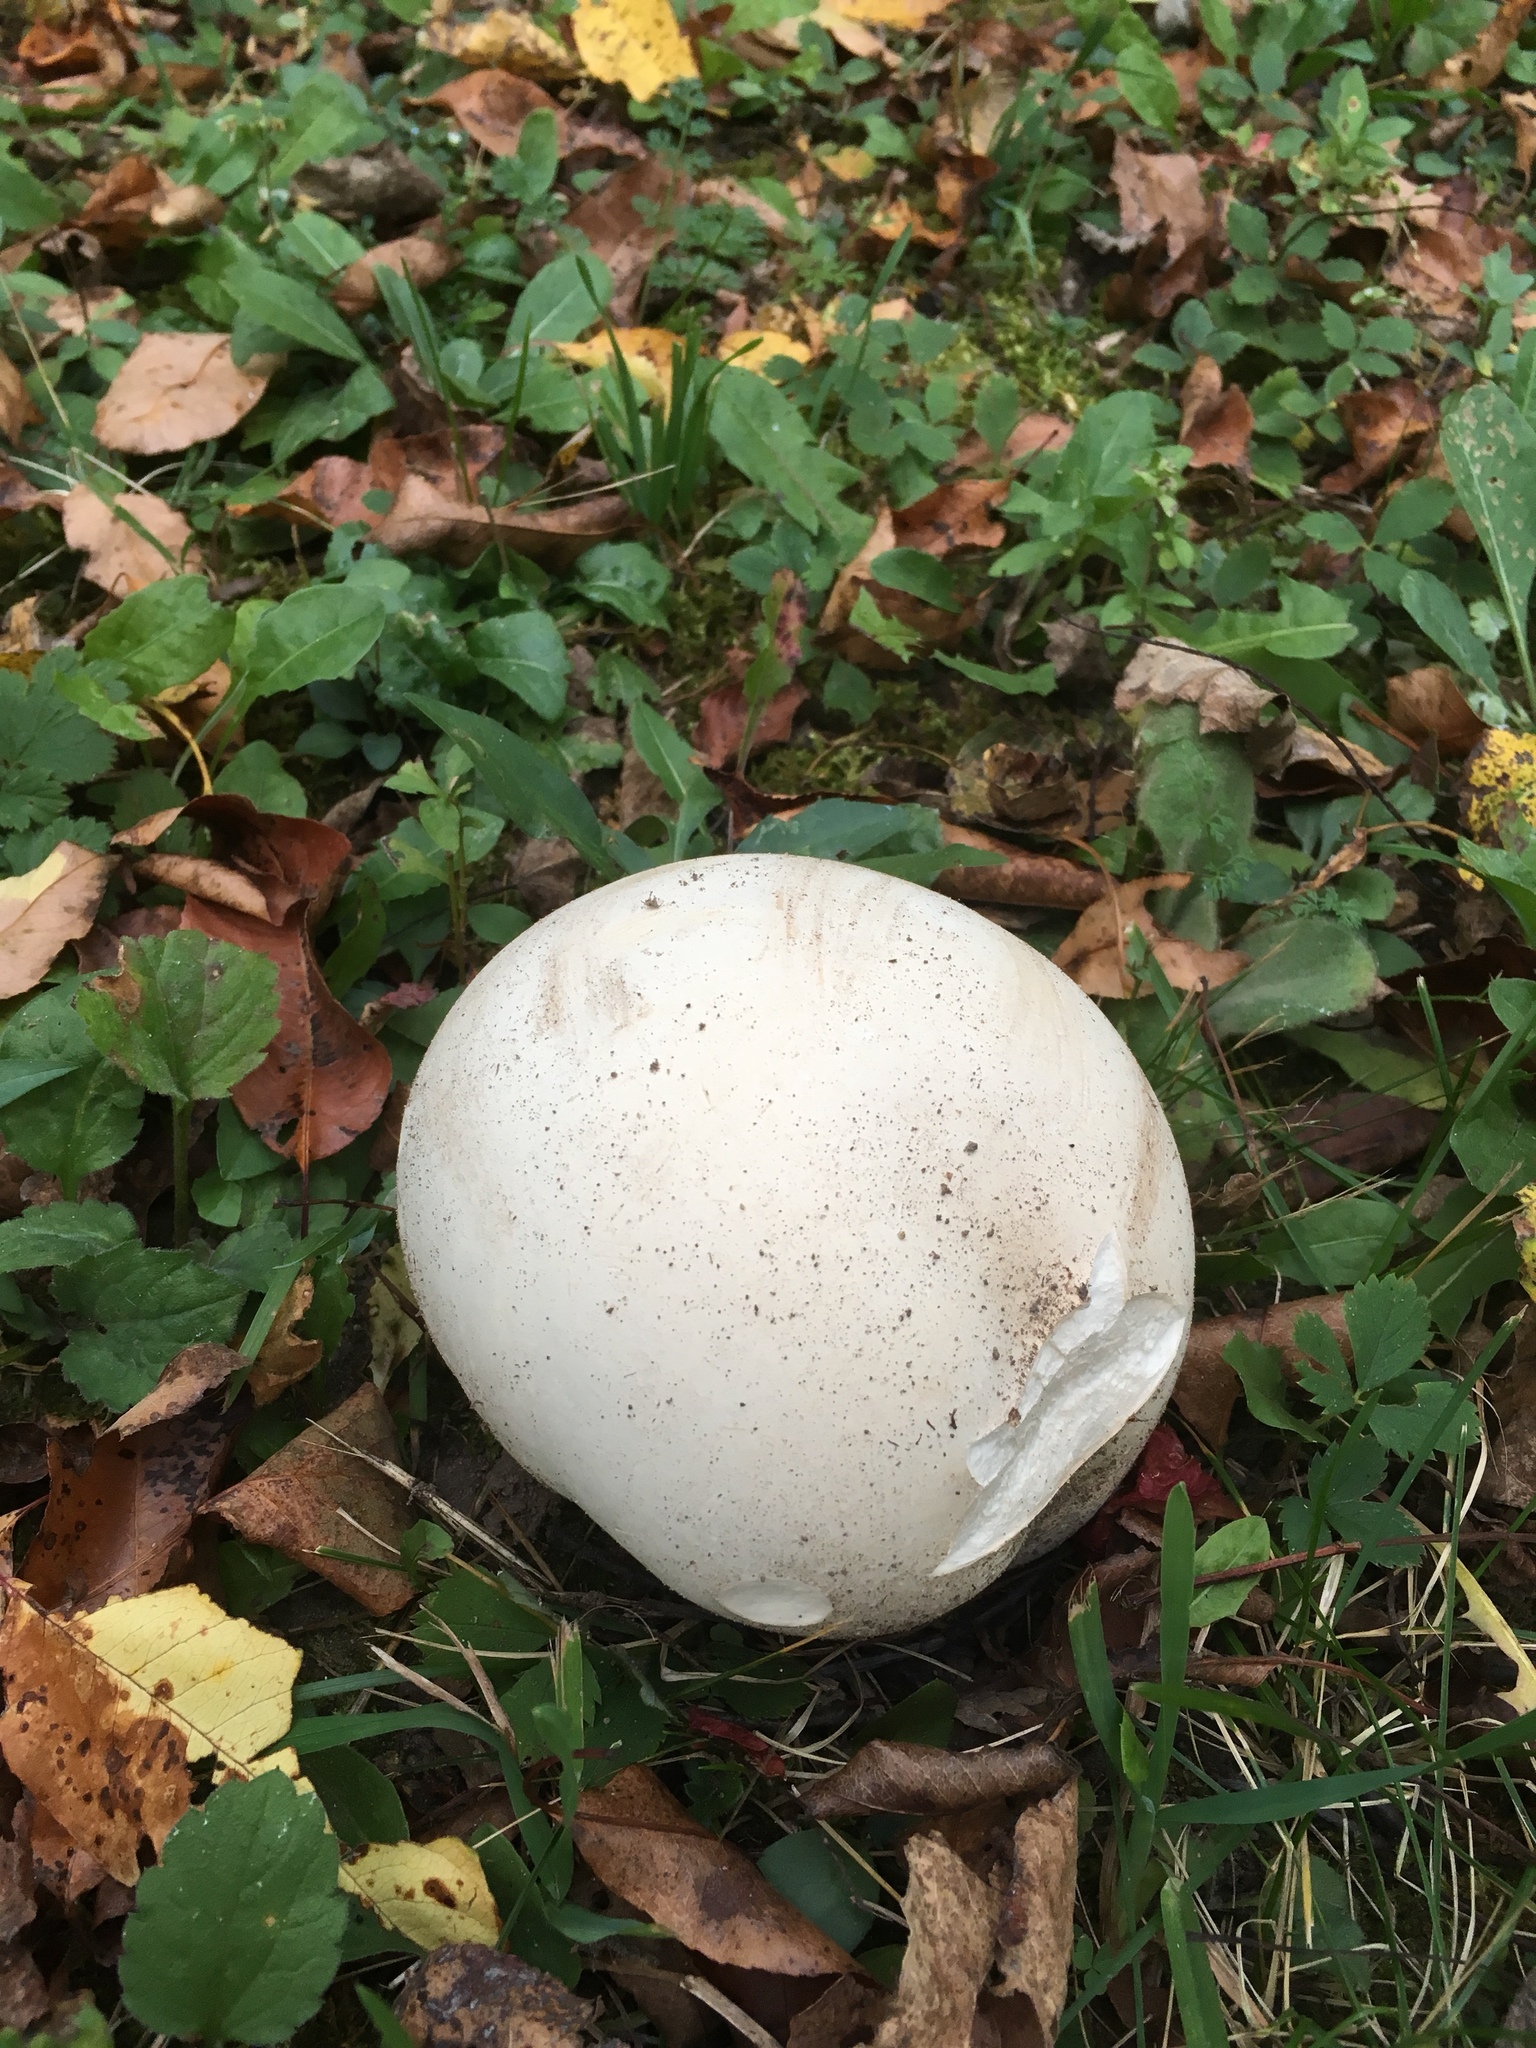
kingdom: Fungi
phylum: Basidiomycota
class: Agaricomycetes
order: Agaricales
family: Lycoperdaceae
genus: Calvatia
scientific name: Calvatia gigantea
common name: Giant puffball
